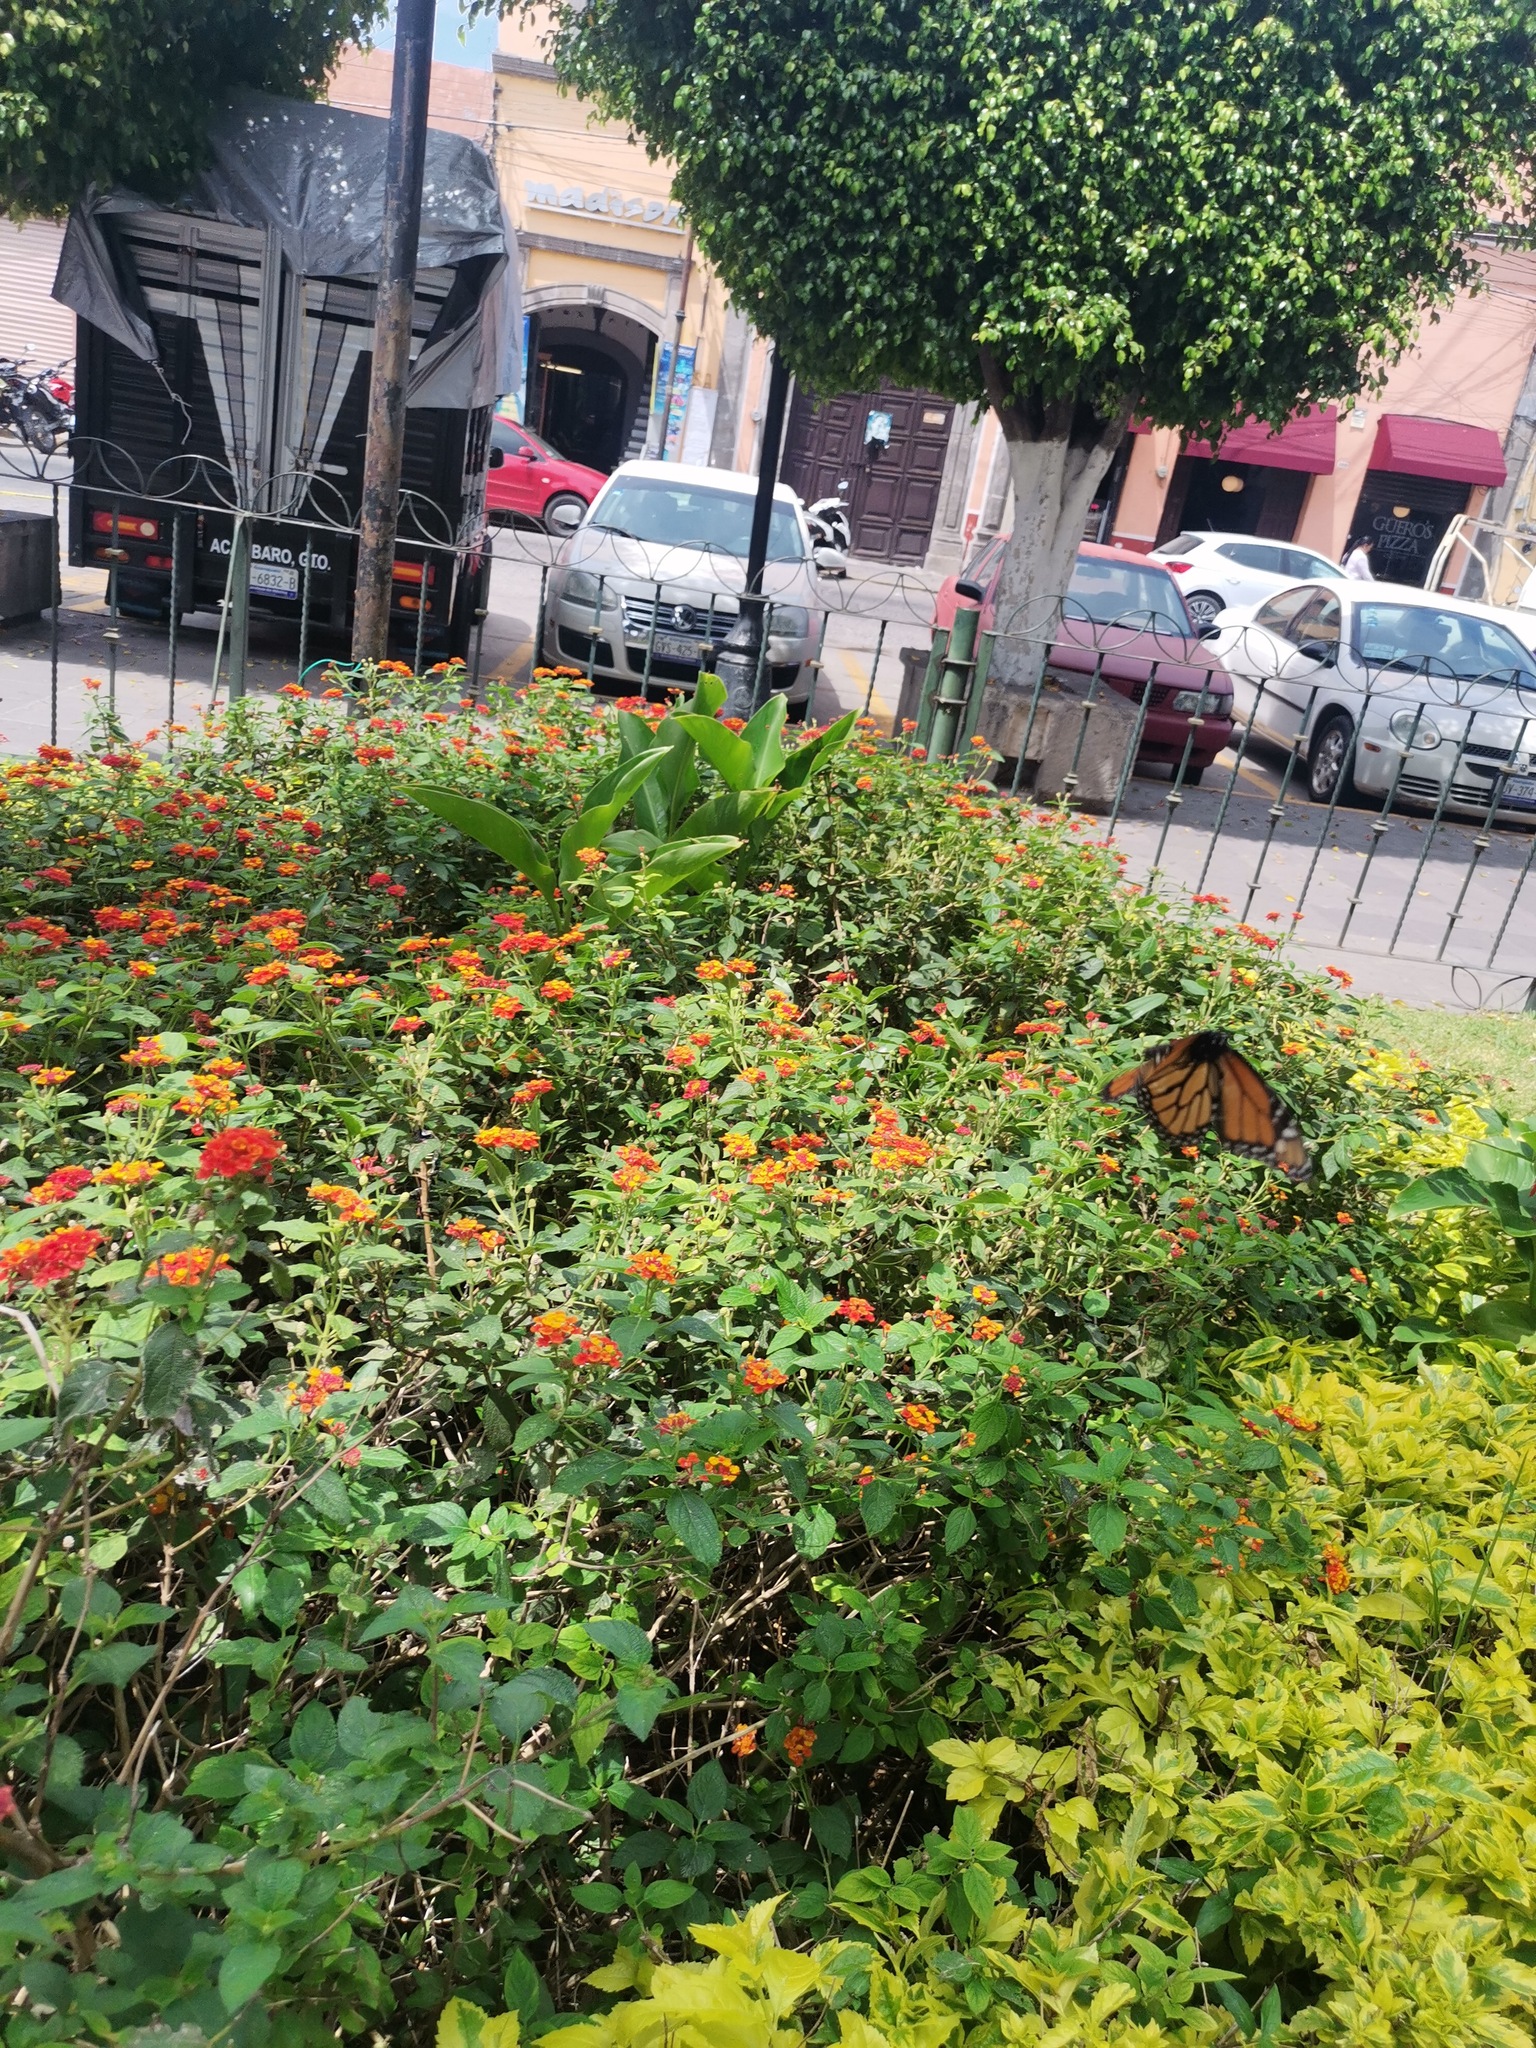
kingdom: Animalia
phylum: Arthropoda
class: Insecta
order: Lepidoptera
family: Nymphalidae
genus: Danaus
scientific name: Danaus plexippus
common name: Monarch
